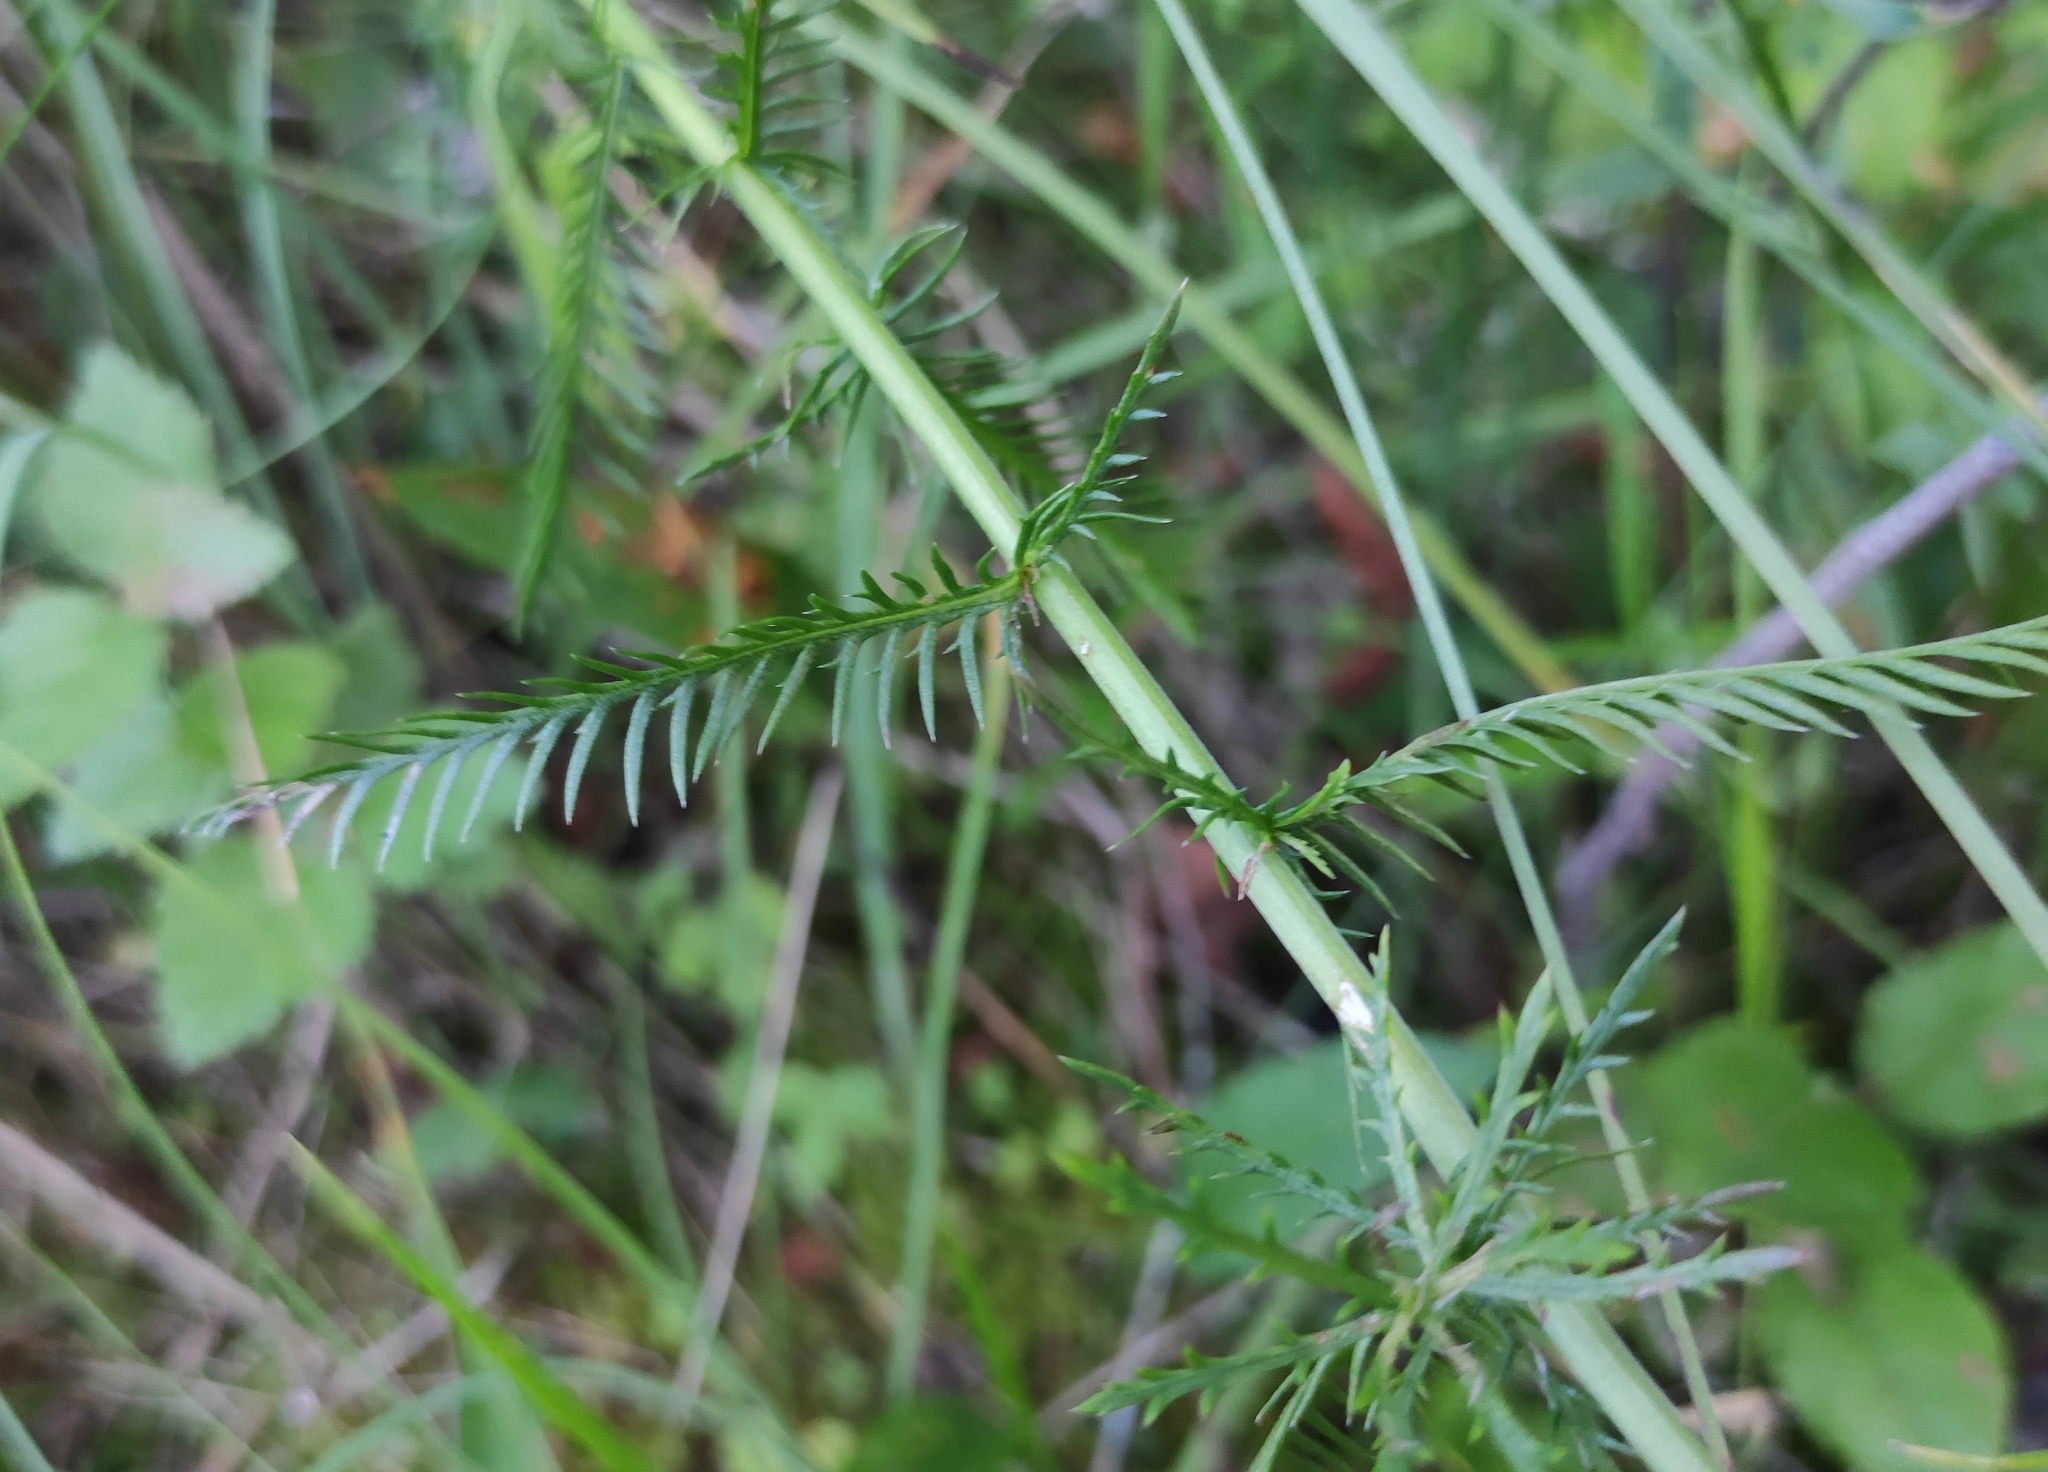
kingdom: Plantae
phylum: Tracheophyta
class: Magnoliopsida
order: Asterales
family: Asteraceae
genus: Achillea
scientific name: Achillea impatiens
